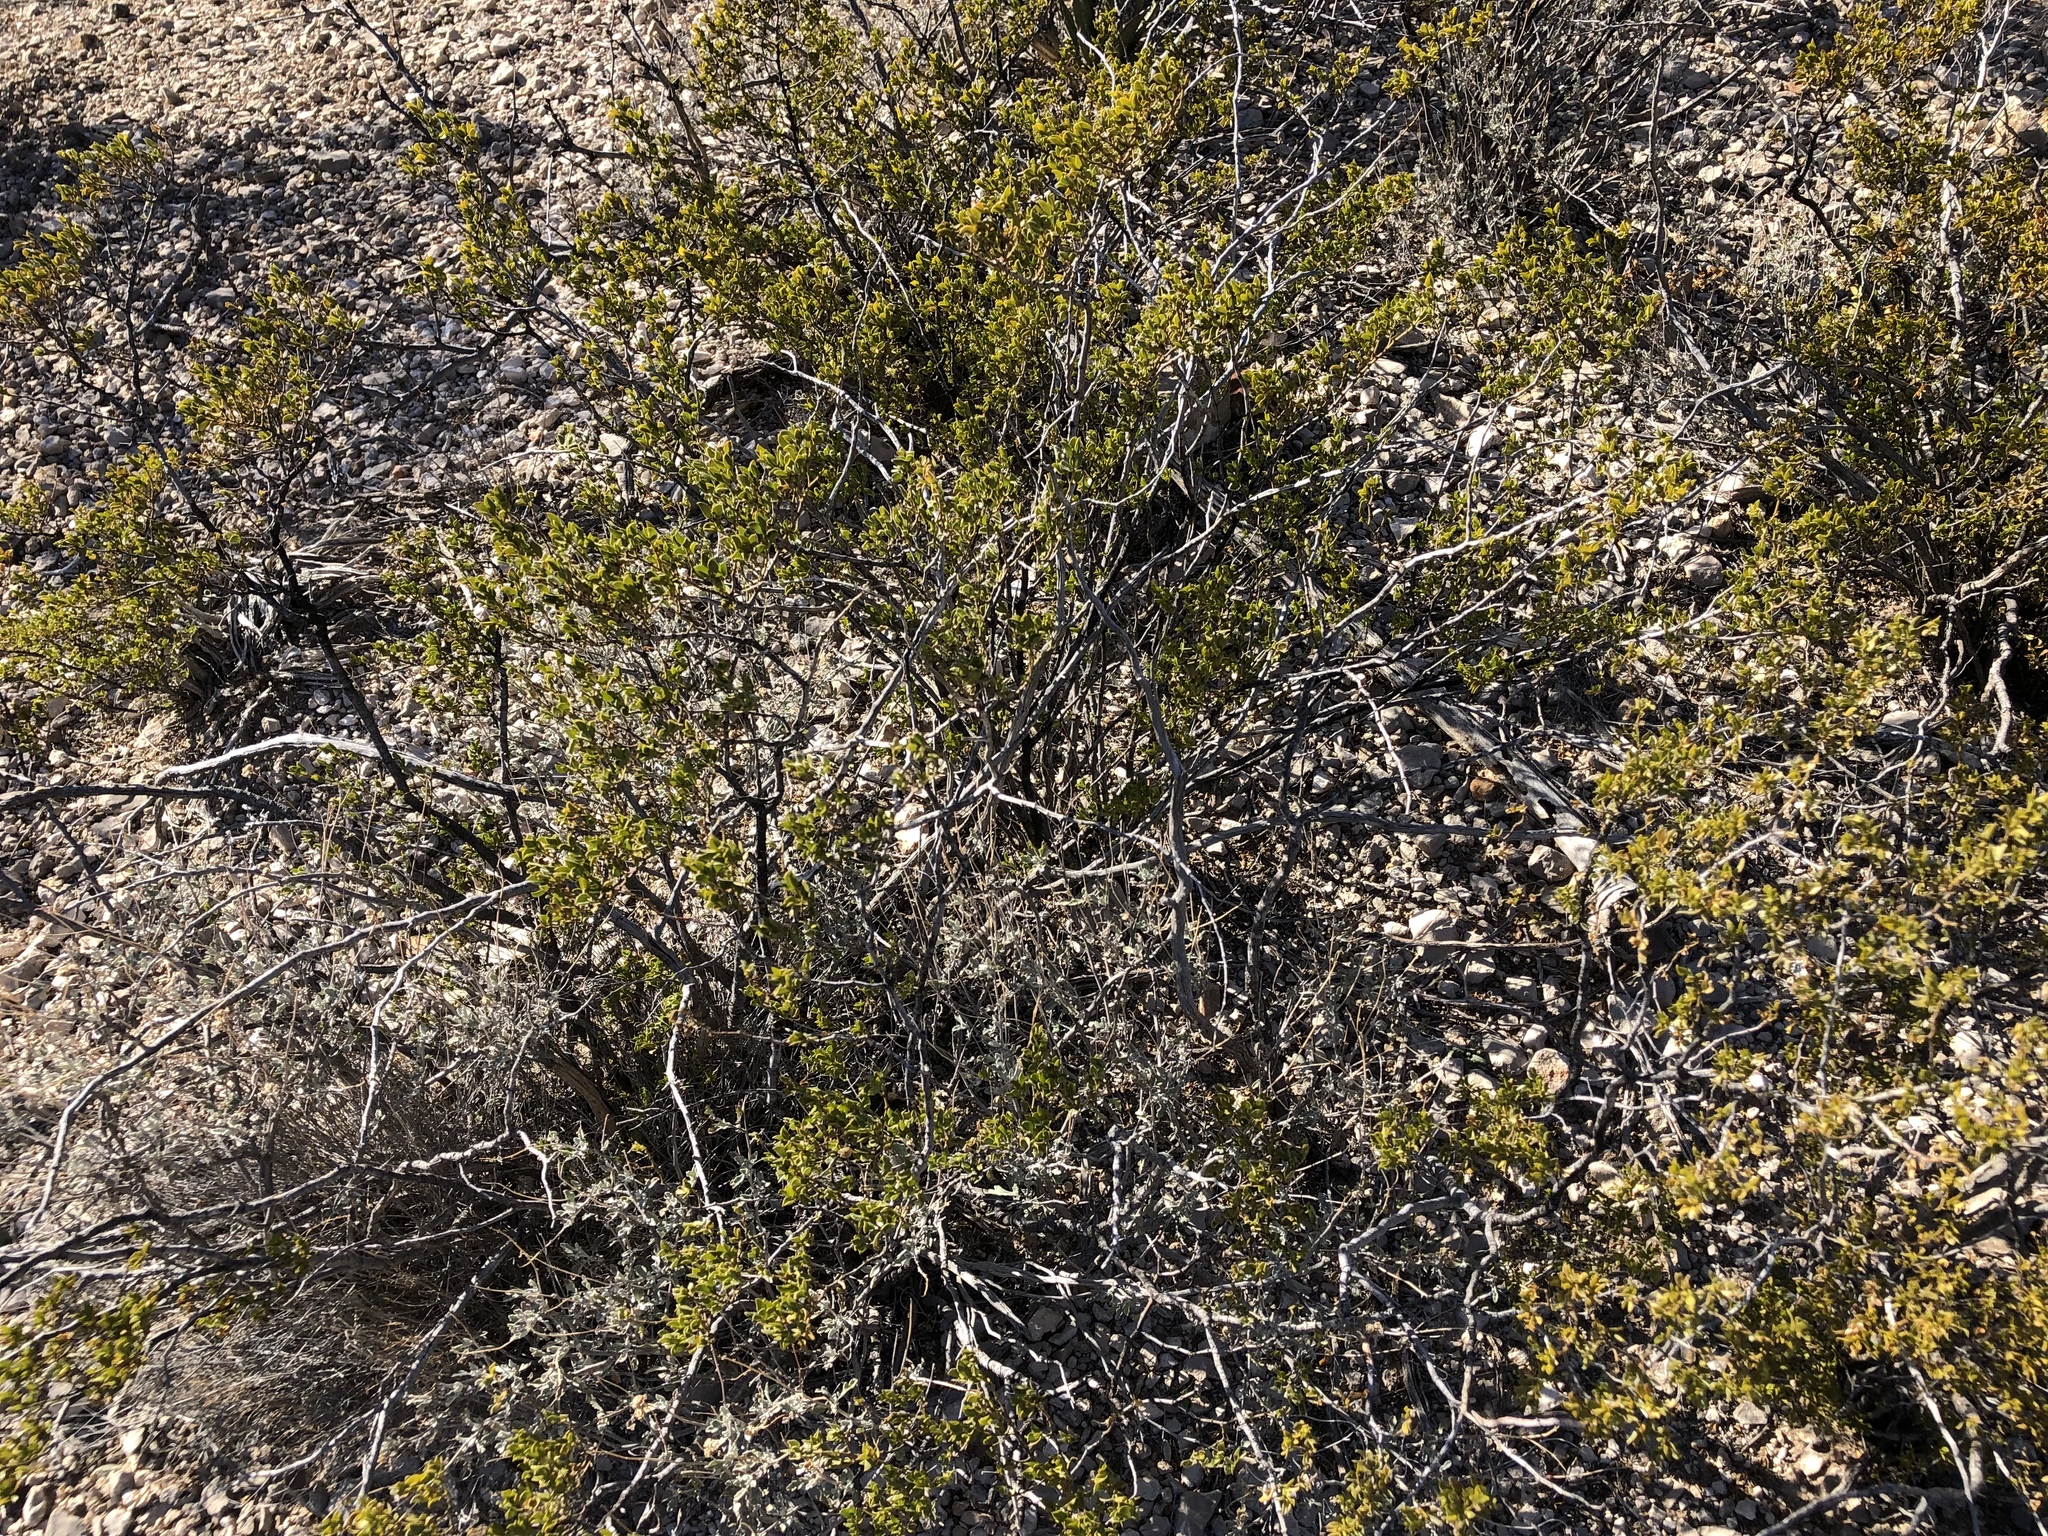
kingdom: Plantae
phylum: Tracheophyta
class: Magnoliopsida
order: Zygophyllales
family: Zygophyllaceae
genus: Larrea
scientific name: Larrea tridentata
